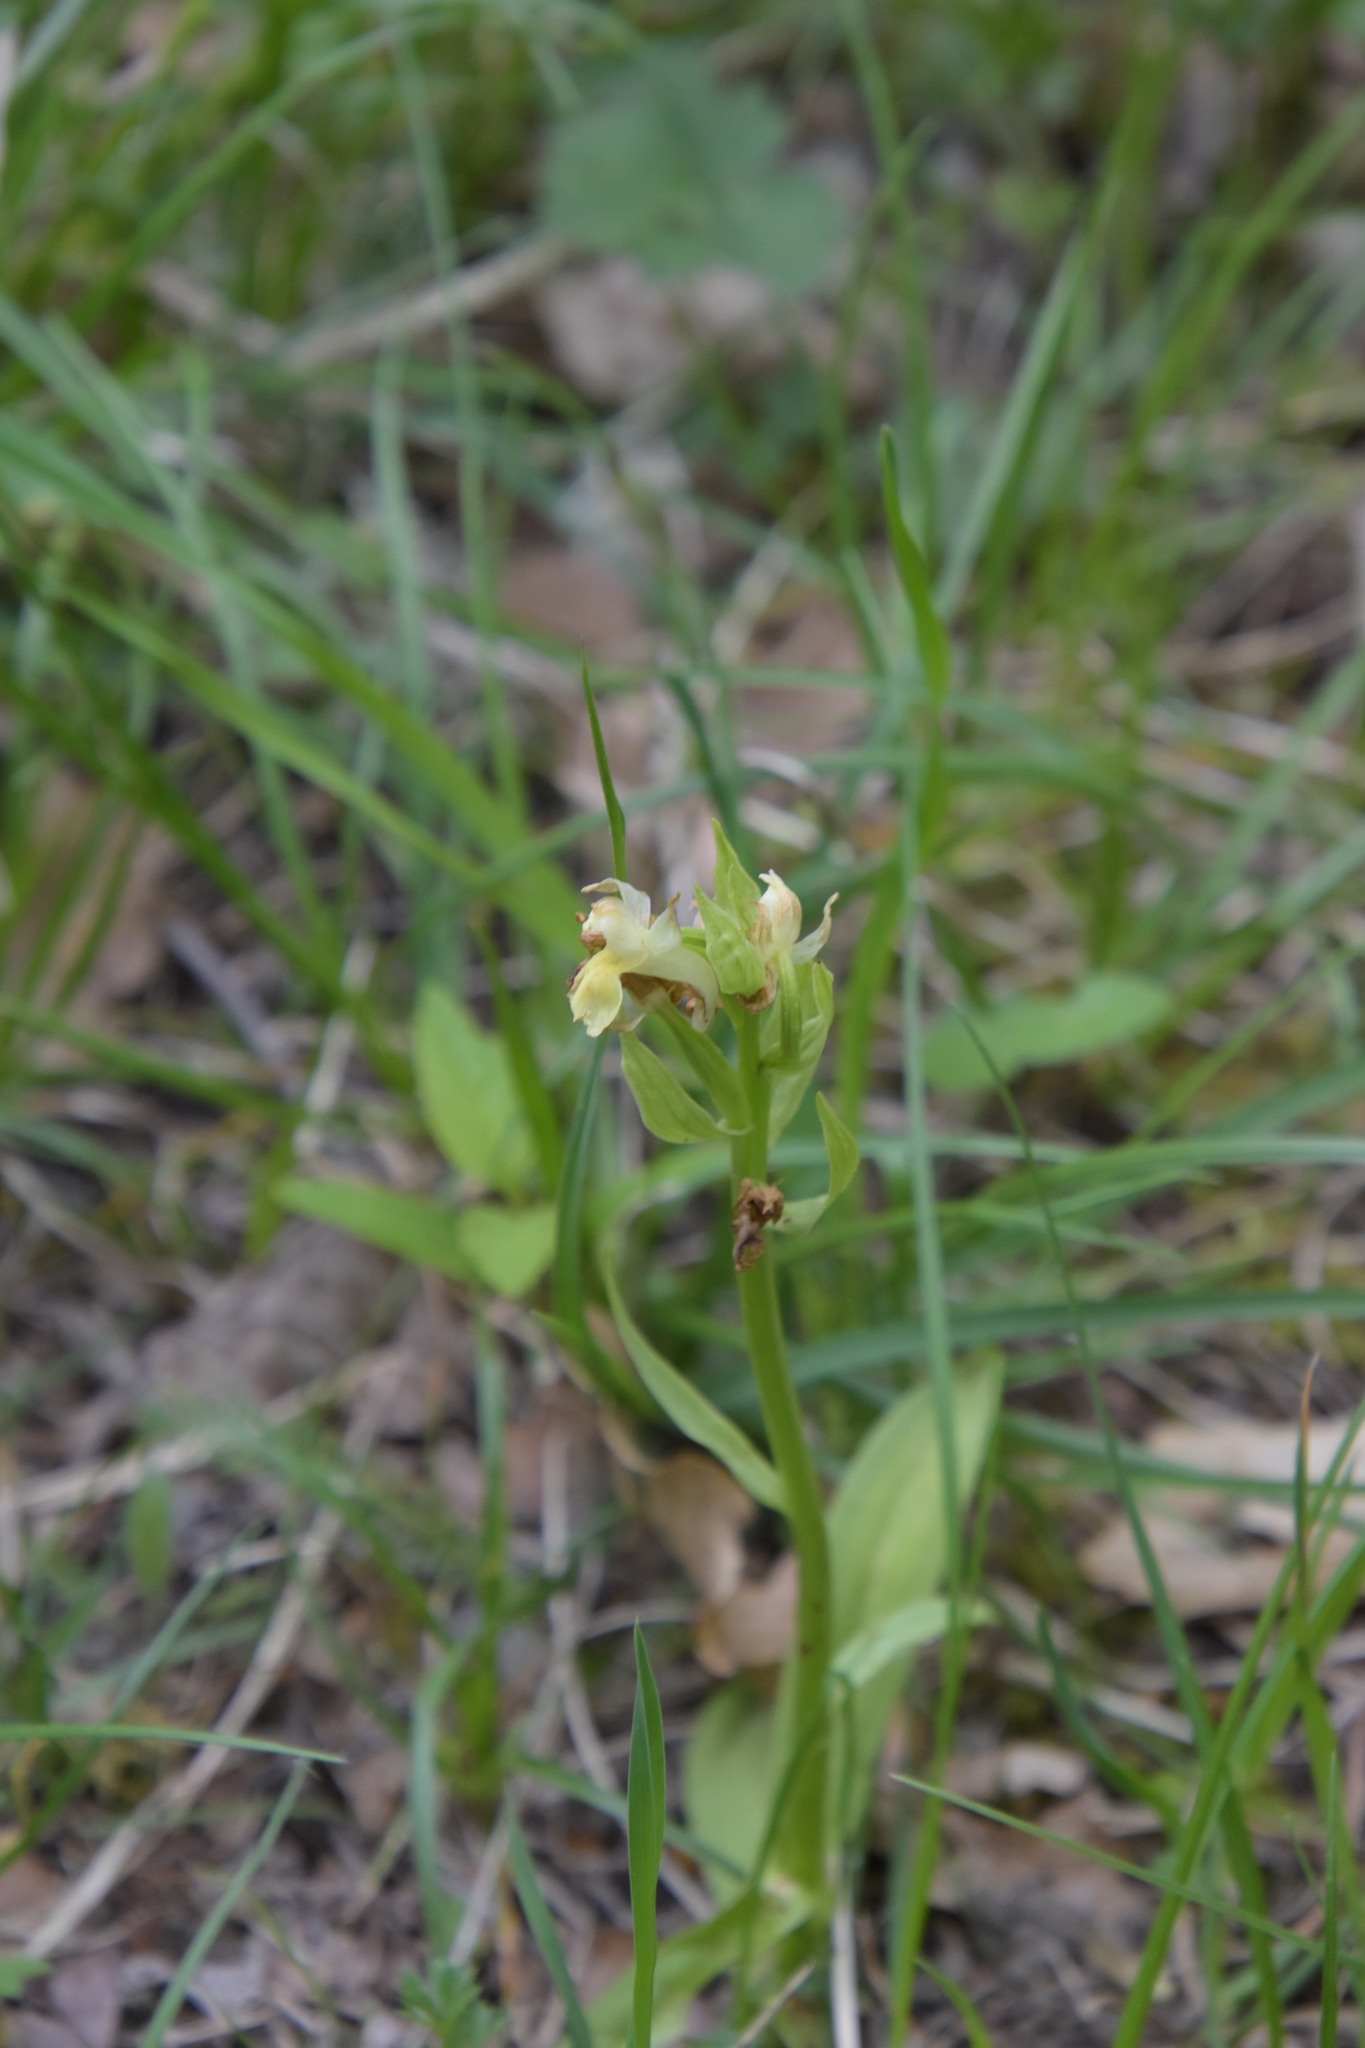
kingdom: Plantae
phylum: Tracheophyta
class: Liliopsida
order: Asparagales
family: Orchidaceae
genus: Dactylorhiza
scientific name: Dactylorhiza sambucina
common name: Elder-flowered orchid
